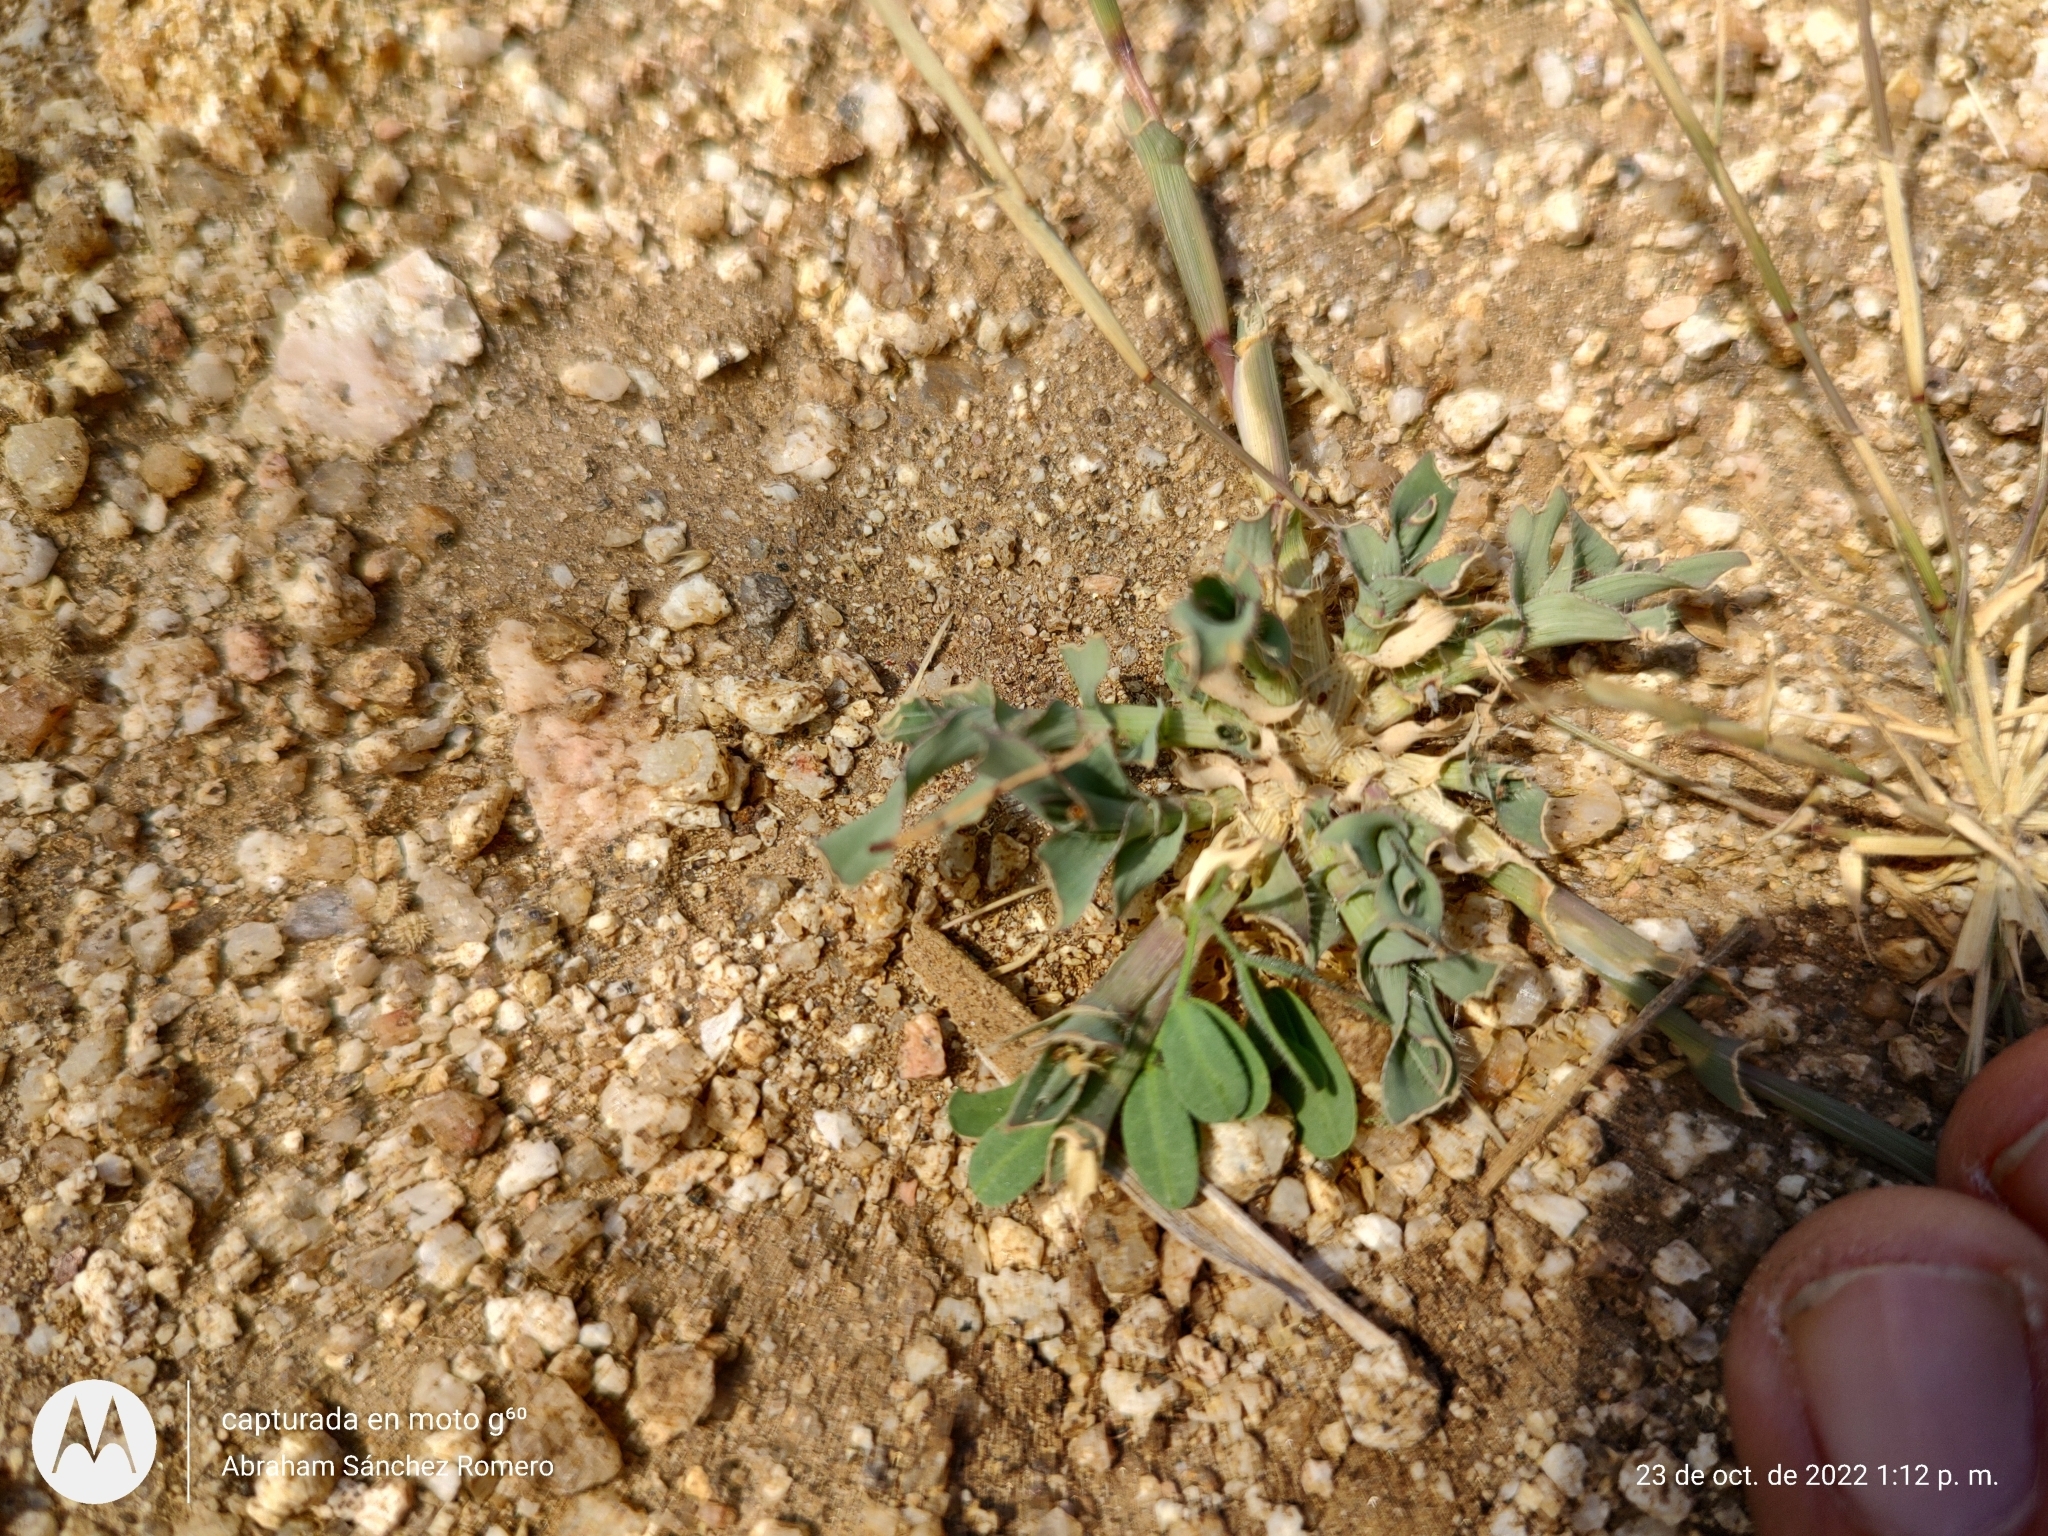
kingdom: Plantae
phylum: Tracheophyta
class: Liliopsida
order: Poales
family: Poaceae
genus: Tragus
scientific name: Tragus berteronianus
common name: African bur-grass
